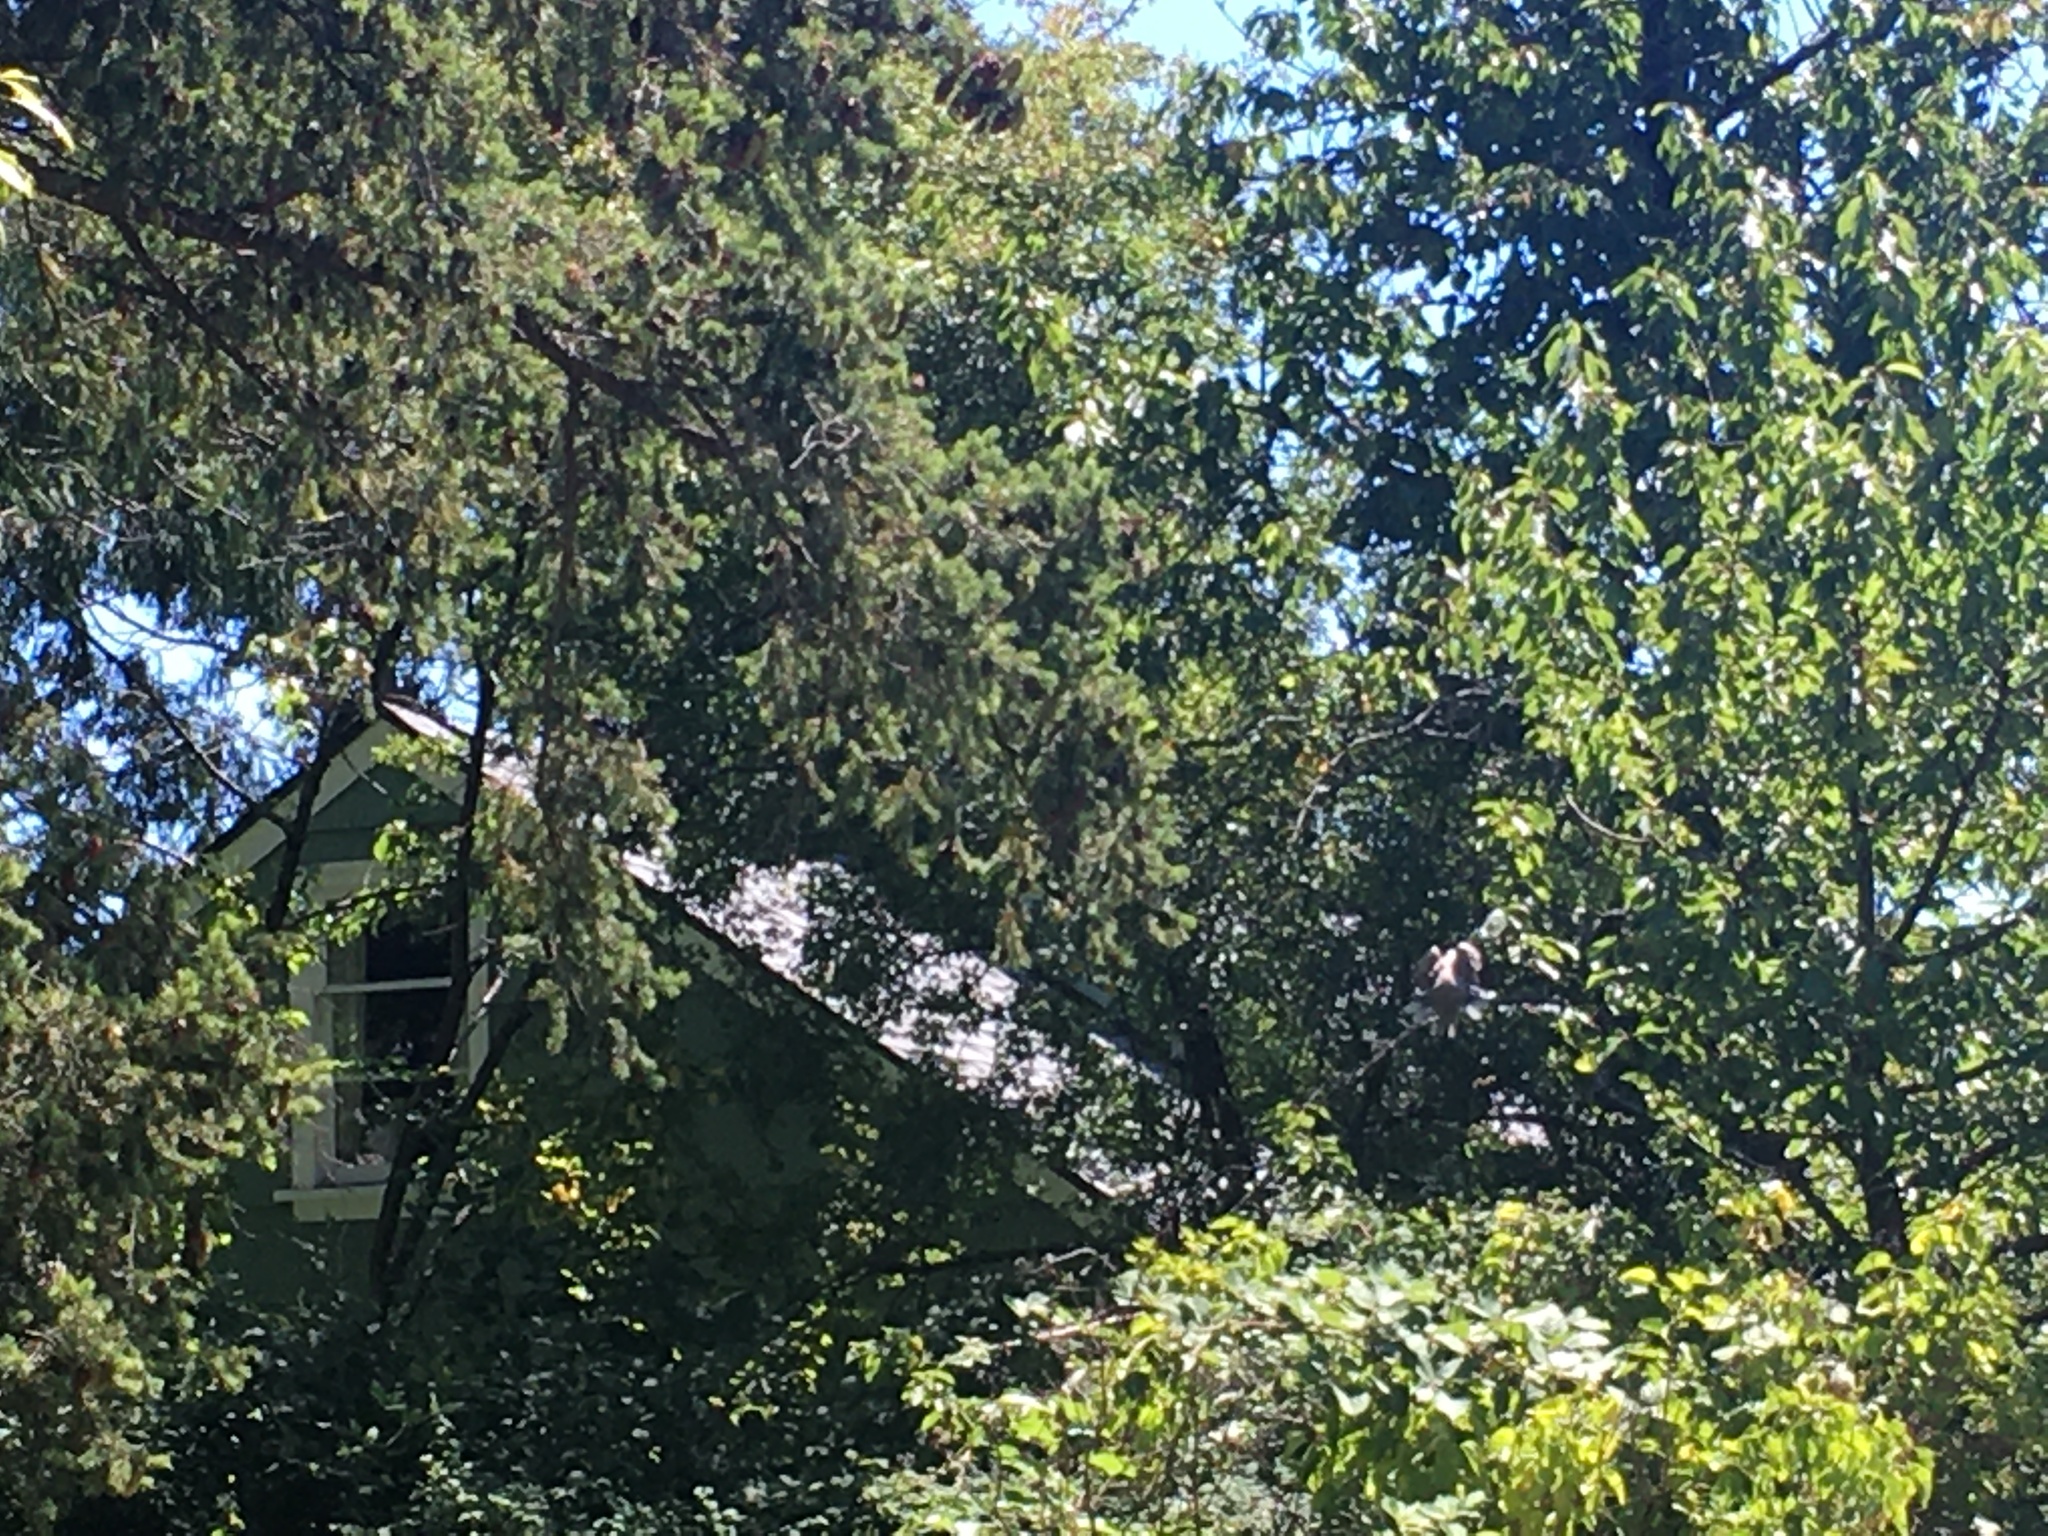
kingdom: Animalia
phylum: Chordata
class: Aves
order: Columbiformes
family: Columbidae
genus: Streptopelia
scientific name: Streptopelia decaocto
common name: Eurasian collared dove
